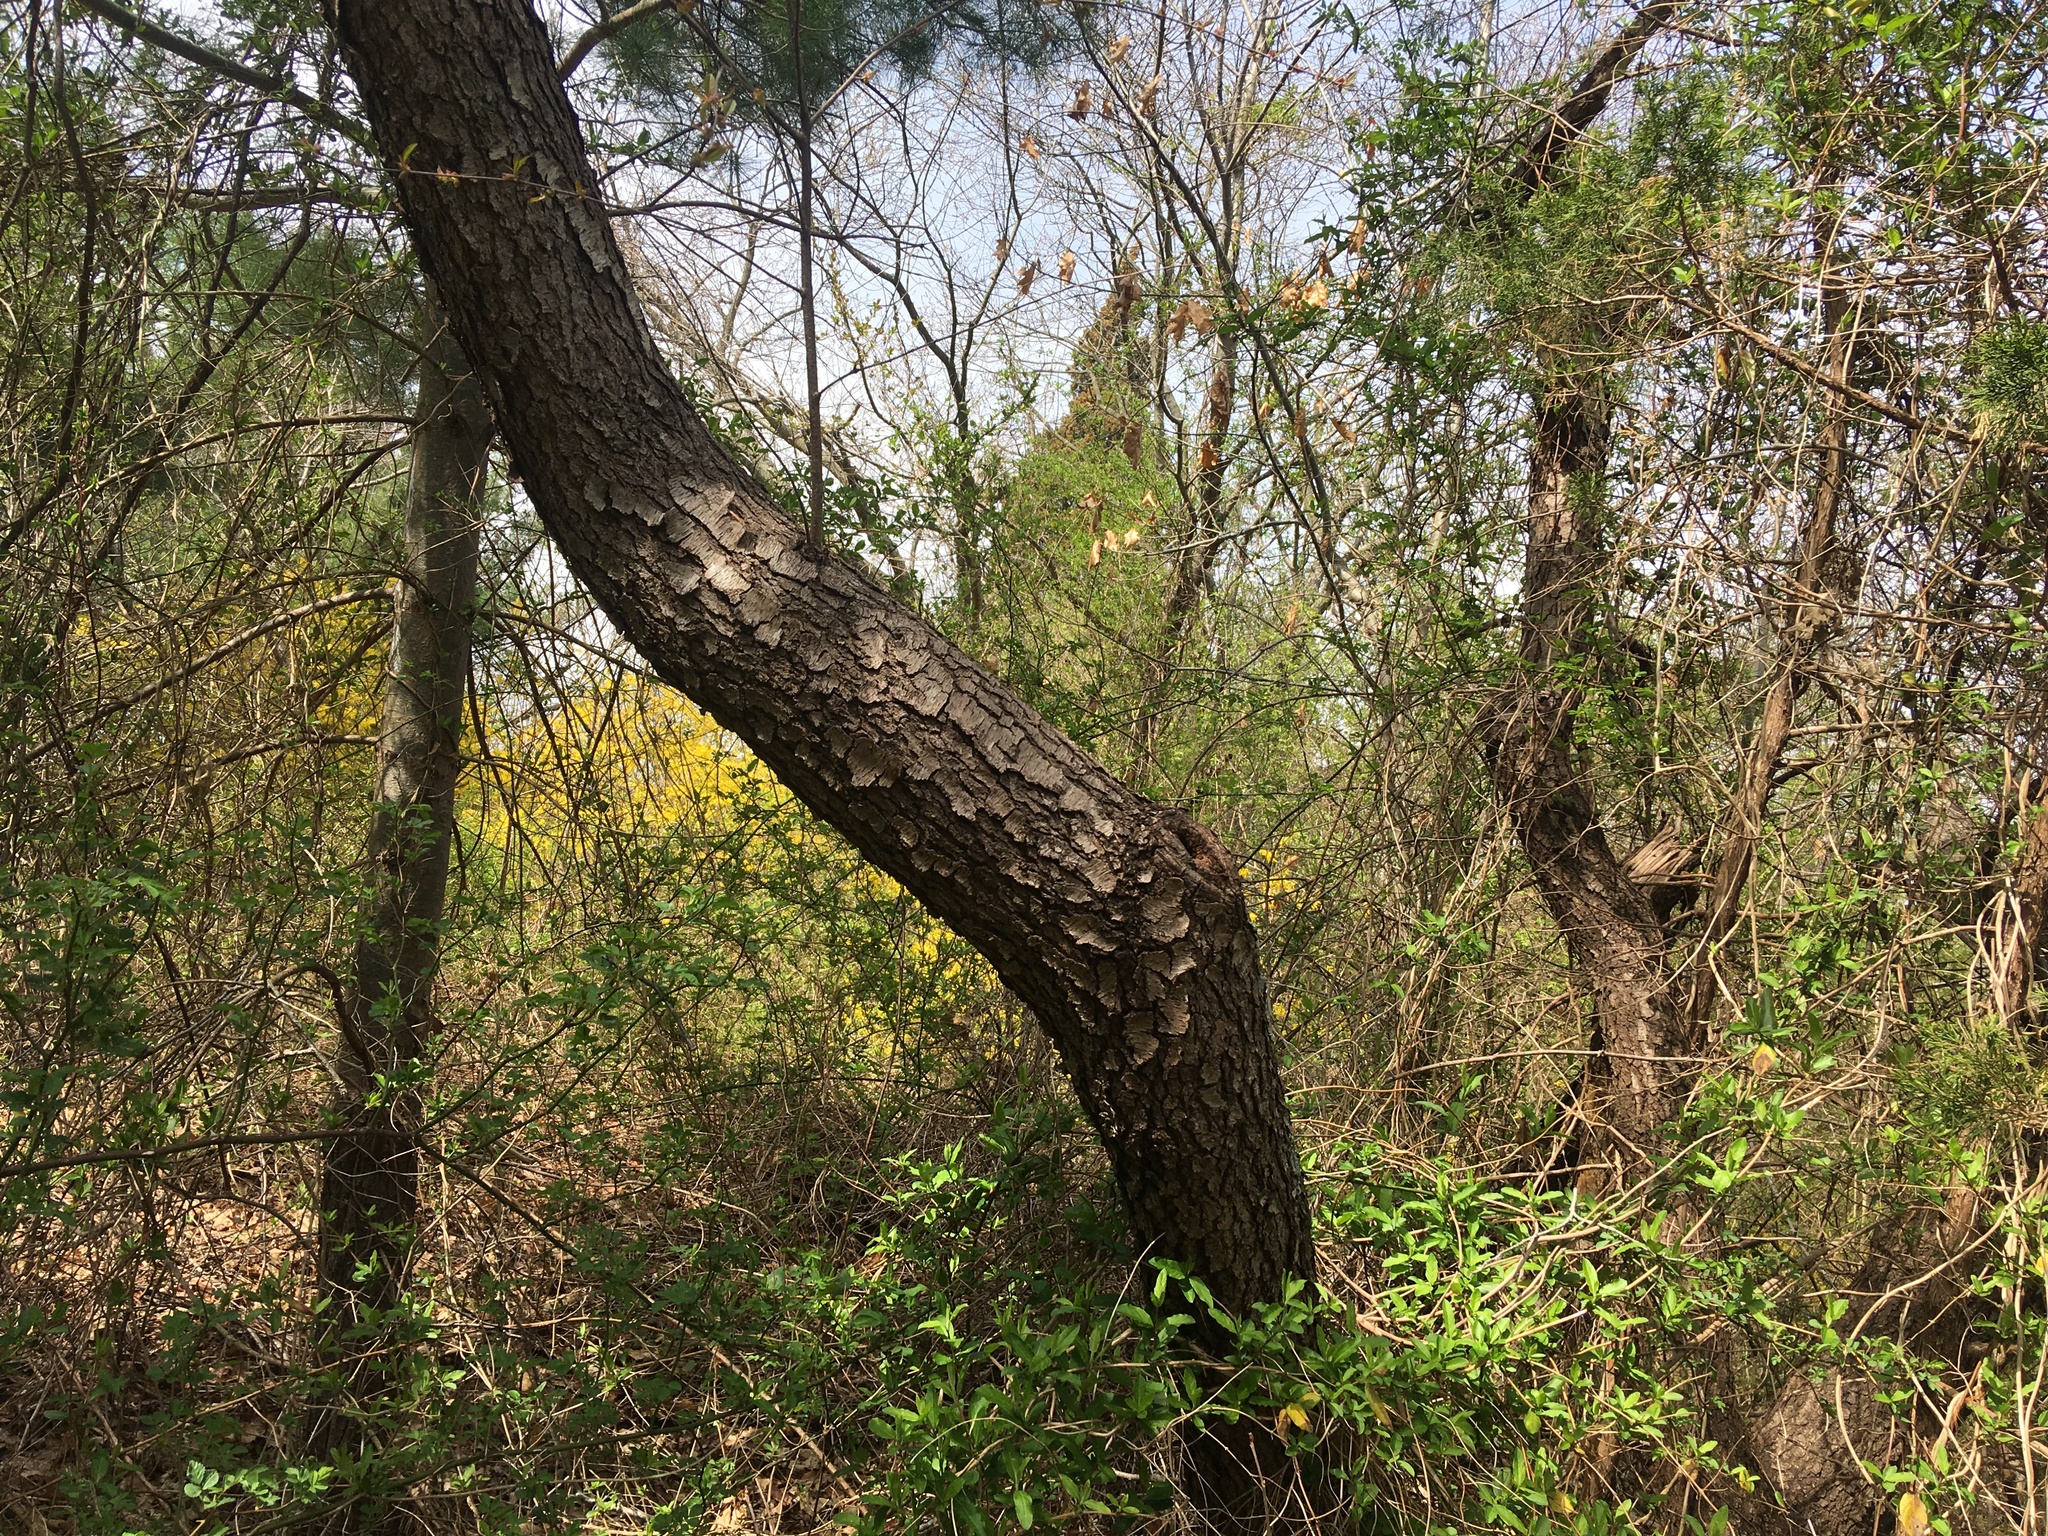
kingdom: Plantae
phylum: Tracheophyta
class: Magnoliopsida
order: Rosales
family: Rosaceae
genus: Prunus
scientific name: Prunus serotina
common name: Black cherry
